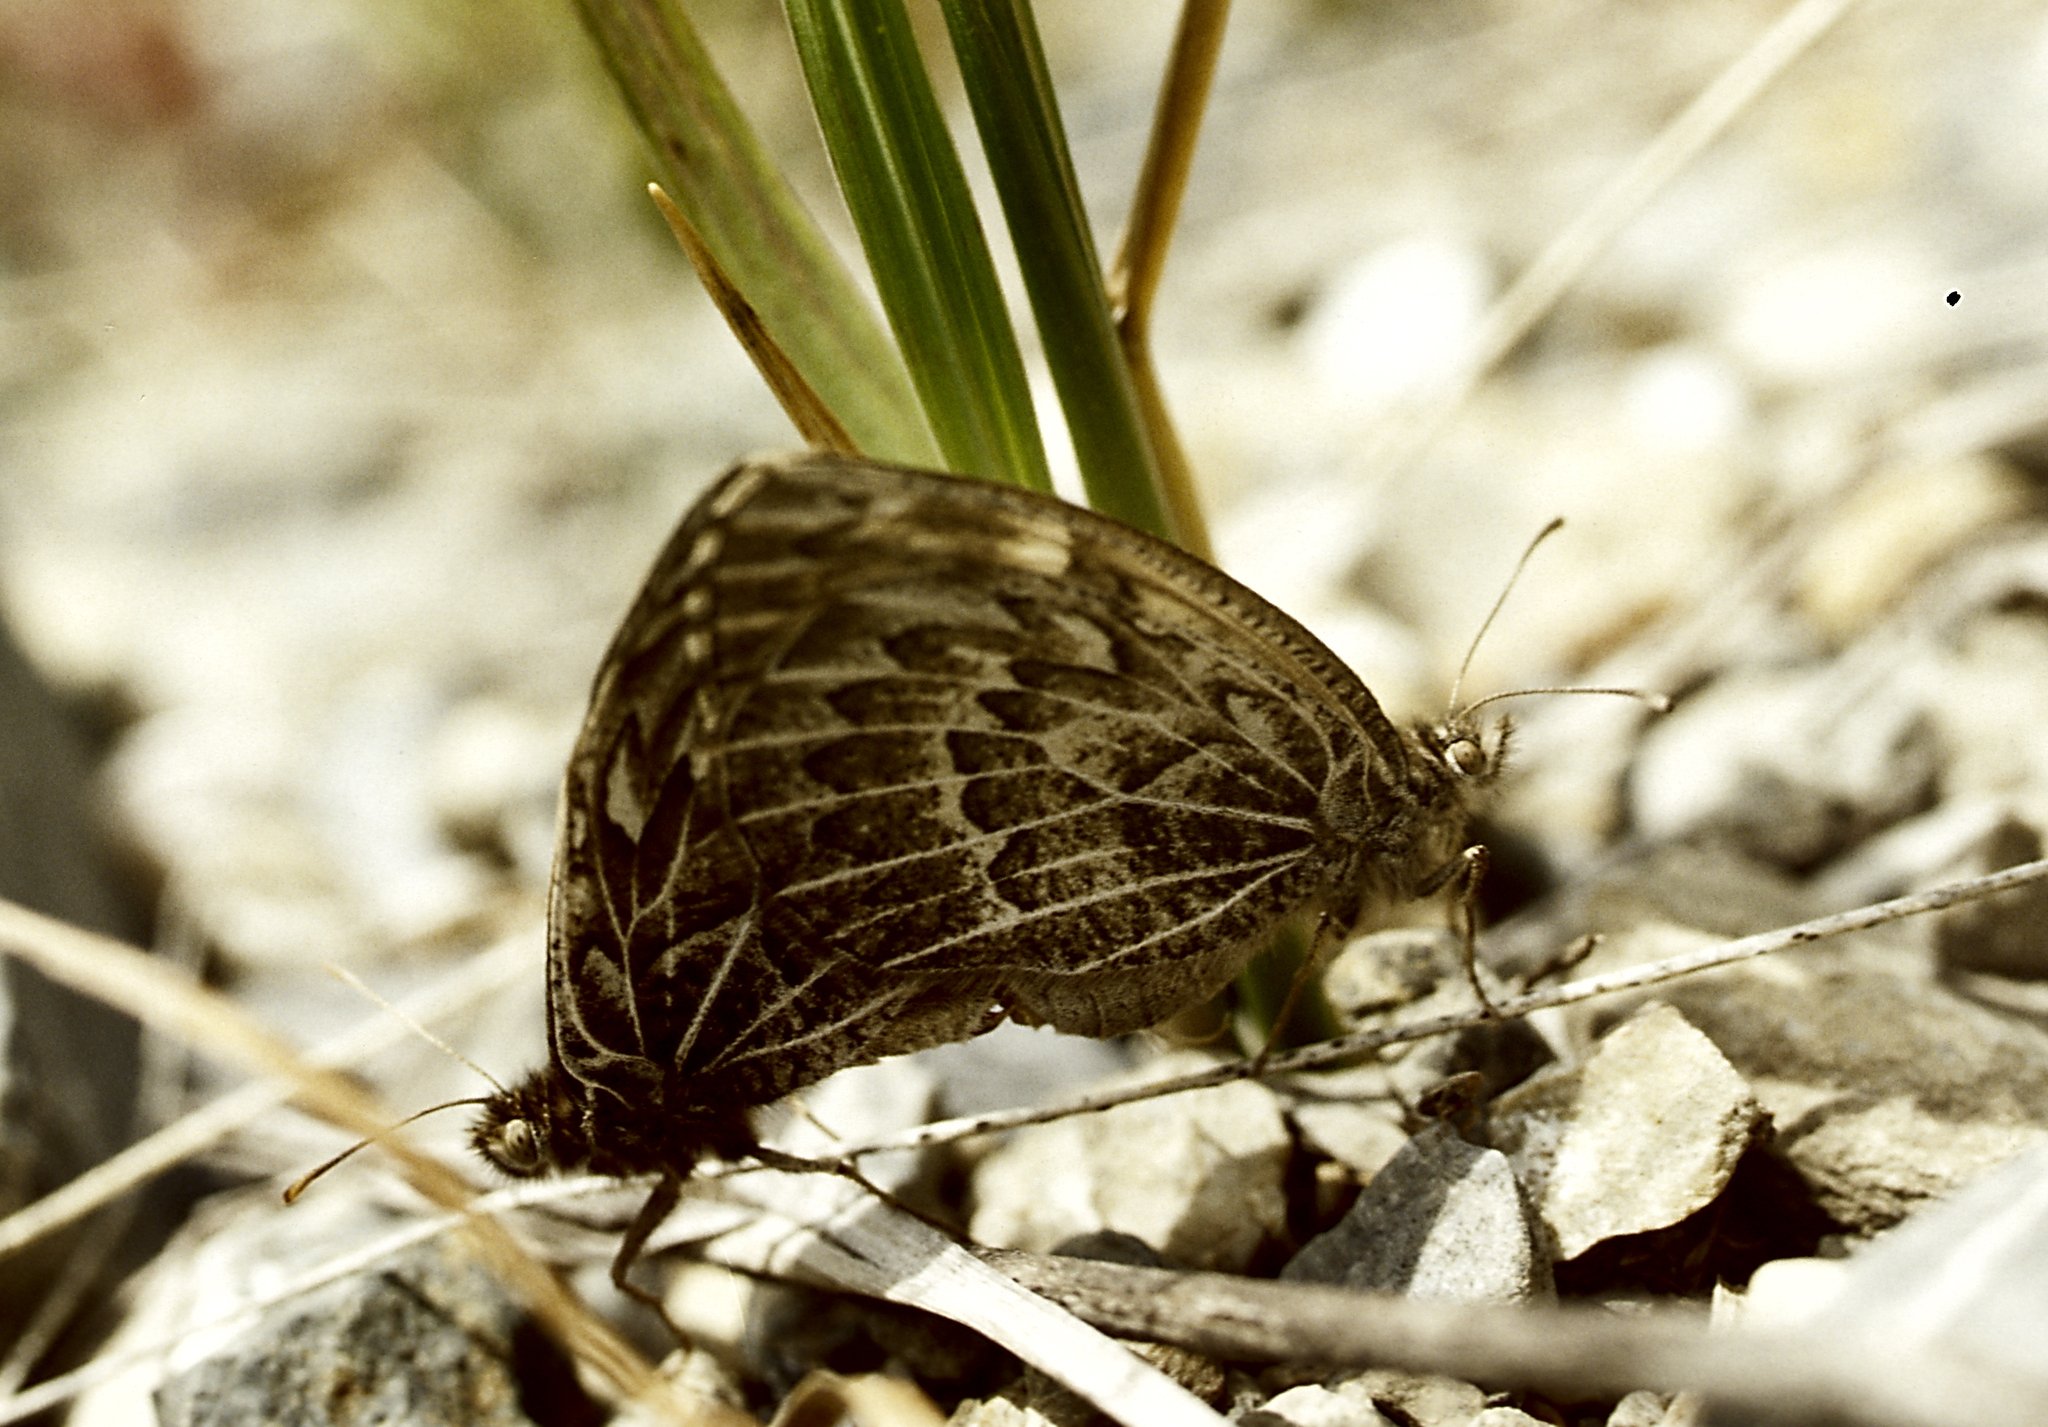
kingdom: Animalia
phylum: Arthropoda
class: Insecta
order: Lepidoptera
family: Nymphalidae
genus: Satyrus
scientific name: Satyrus
